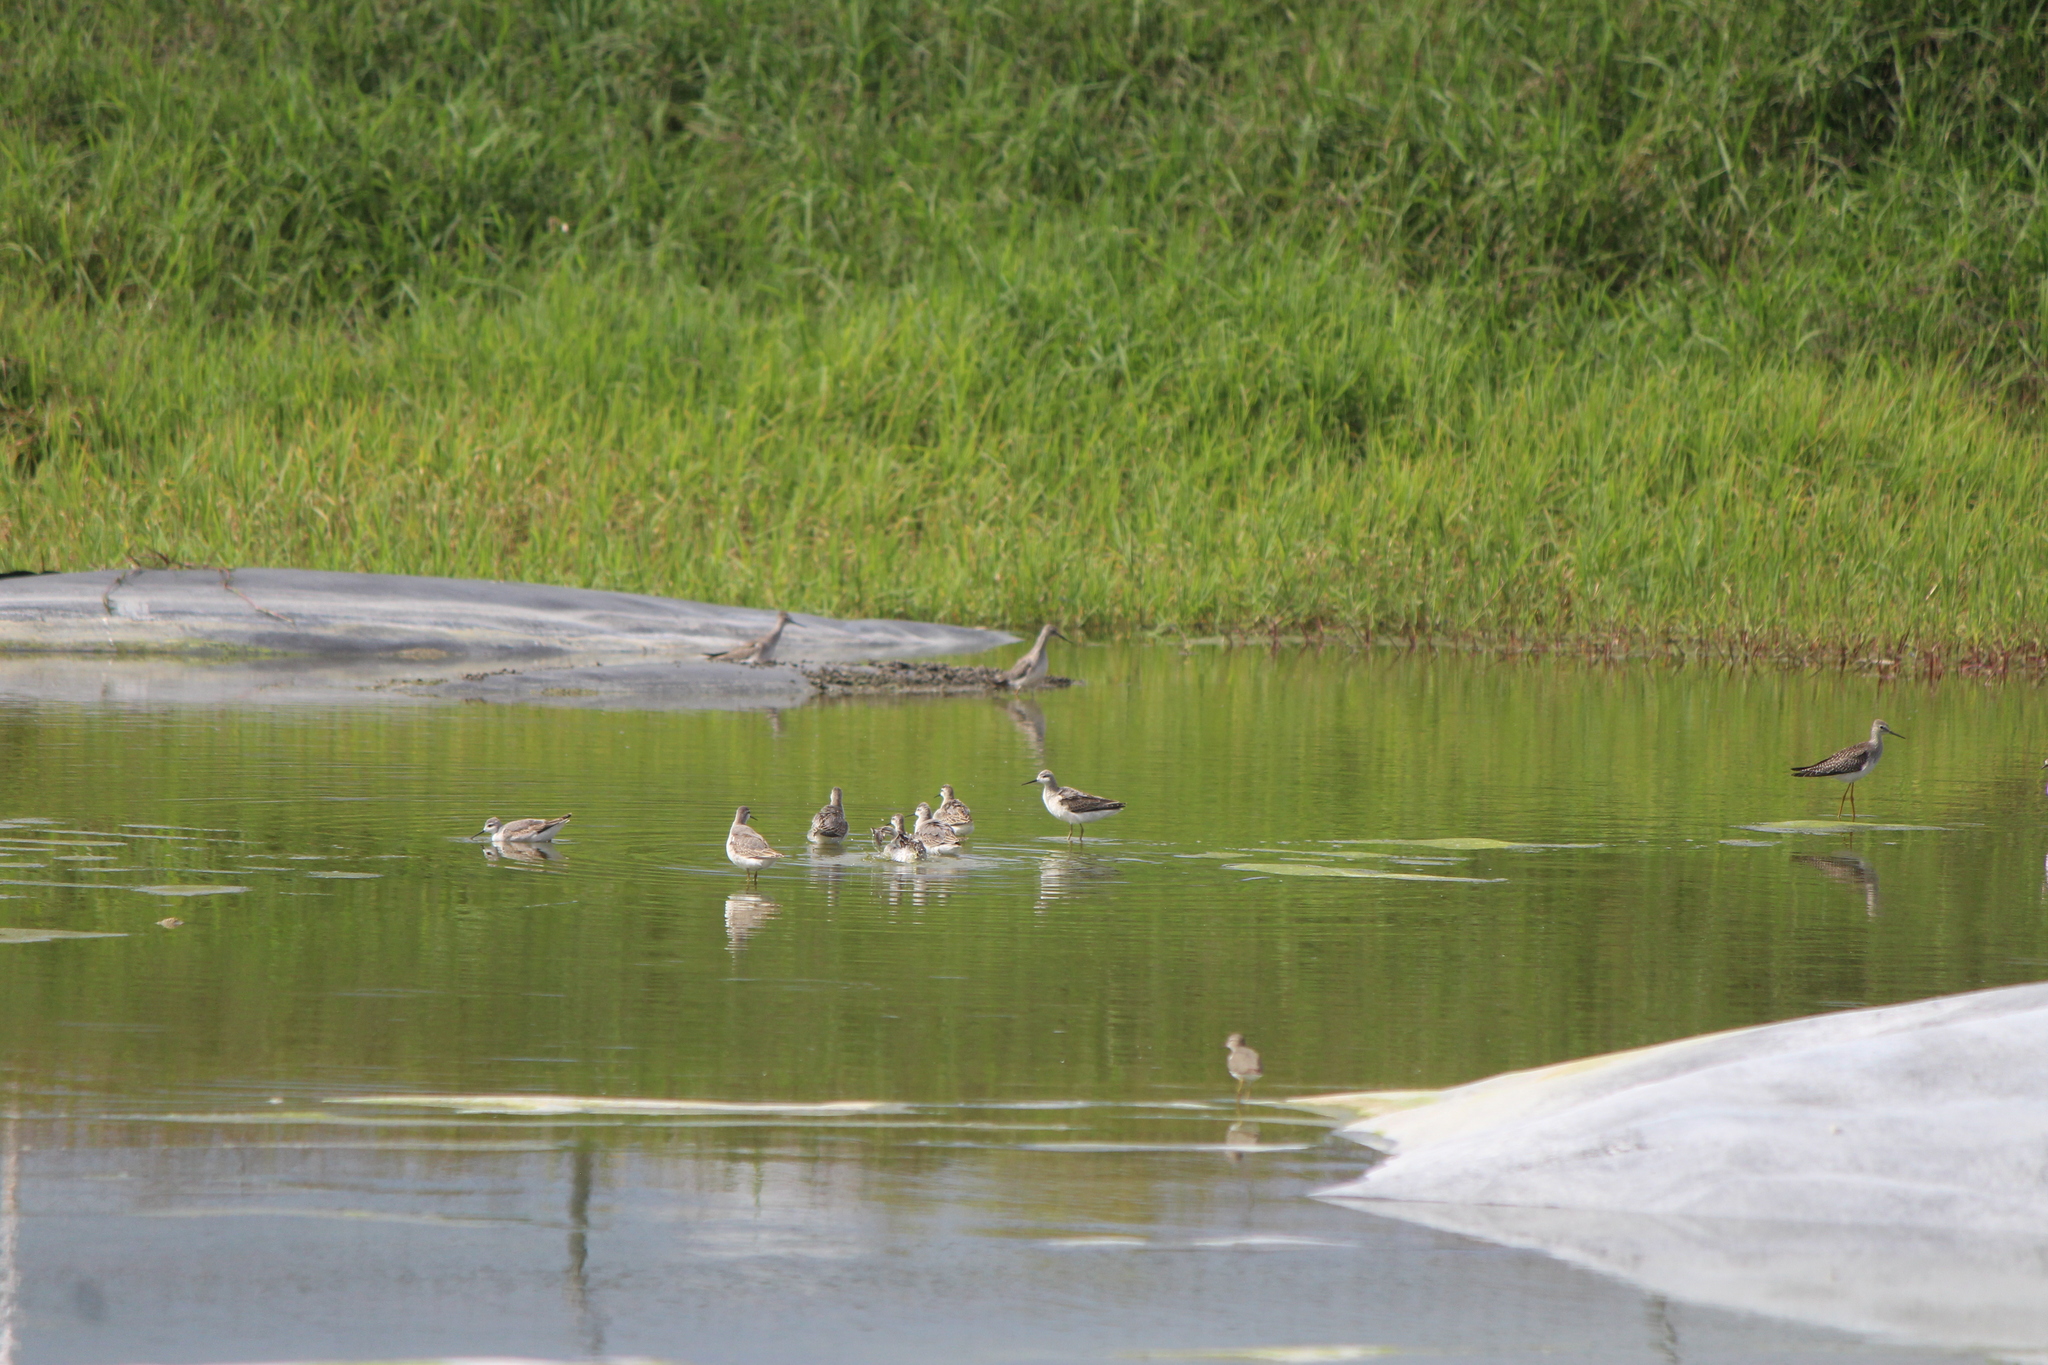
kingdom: Animalia
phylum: Chordata
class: Aves
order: Charadriiformes
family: Scolopacidae
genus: Phalaropus
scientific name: Phalaropus tricolor
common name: Wilson's phalarope
